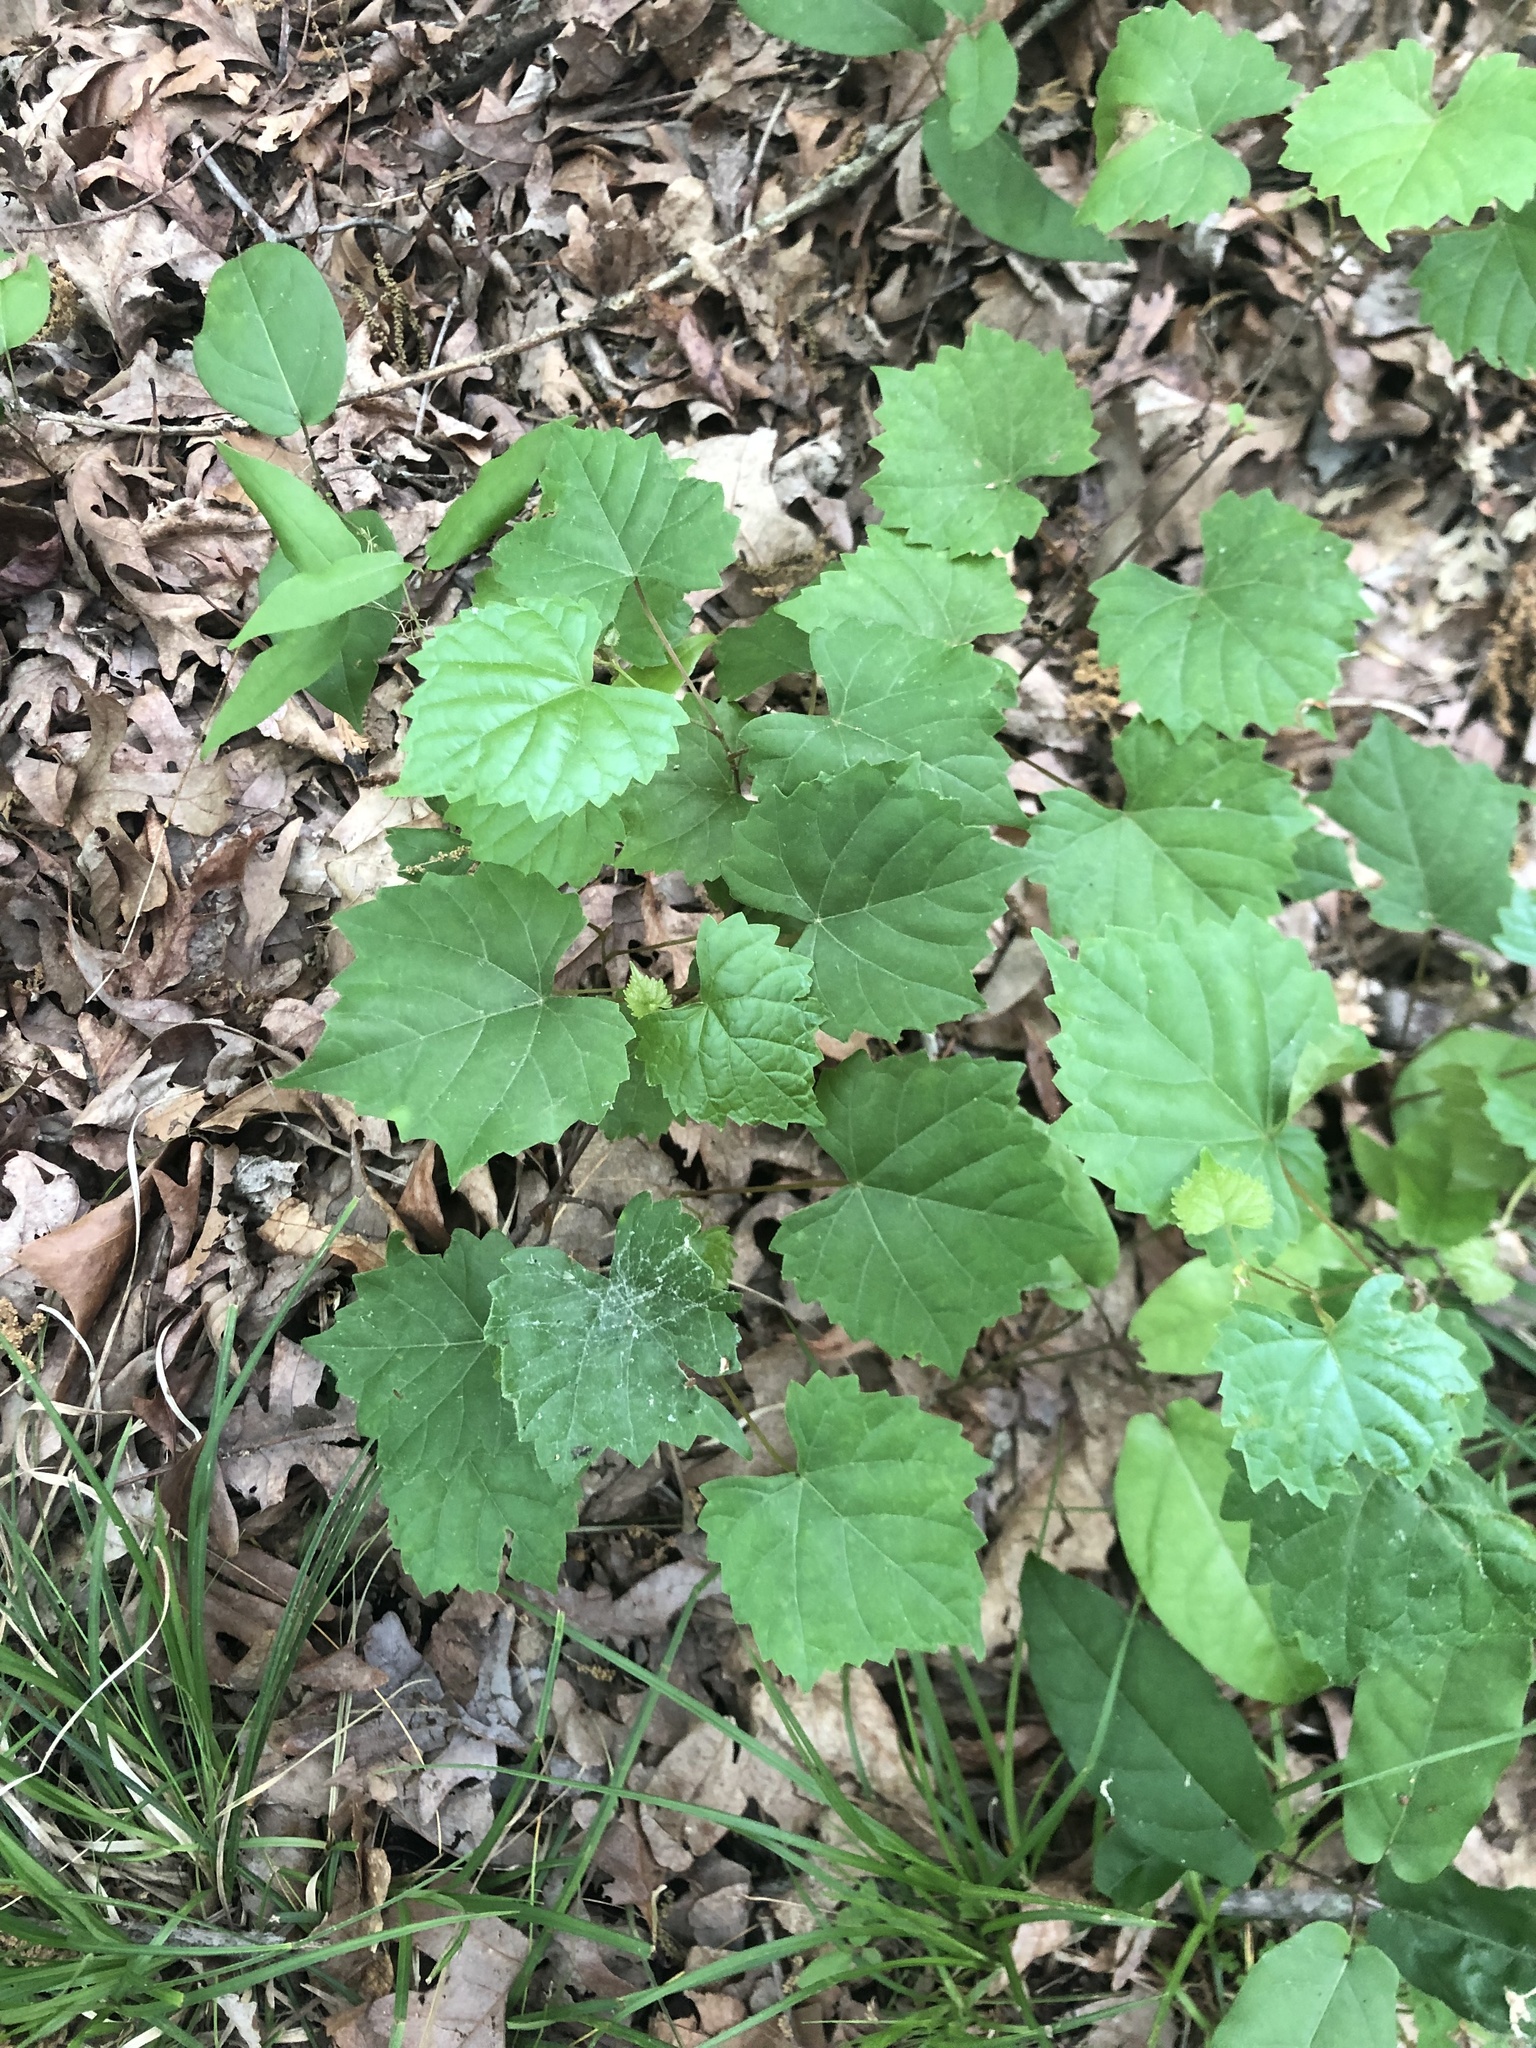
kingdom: Plantae
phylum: Tracheophyta
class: Magnoliopsida
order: Vitales
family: Vitaceae
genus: Vitis
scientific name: Vitis rotundifolia
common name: Muscadine grape
